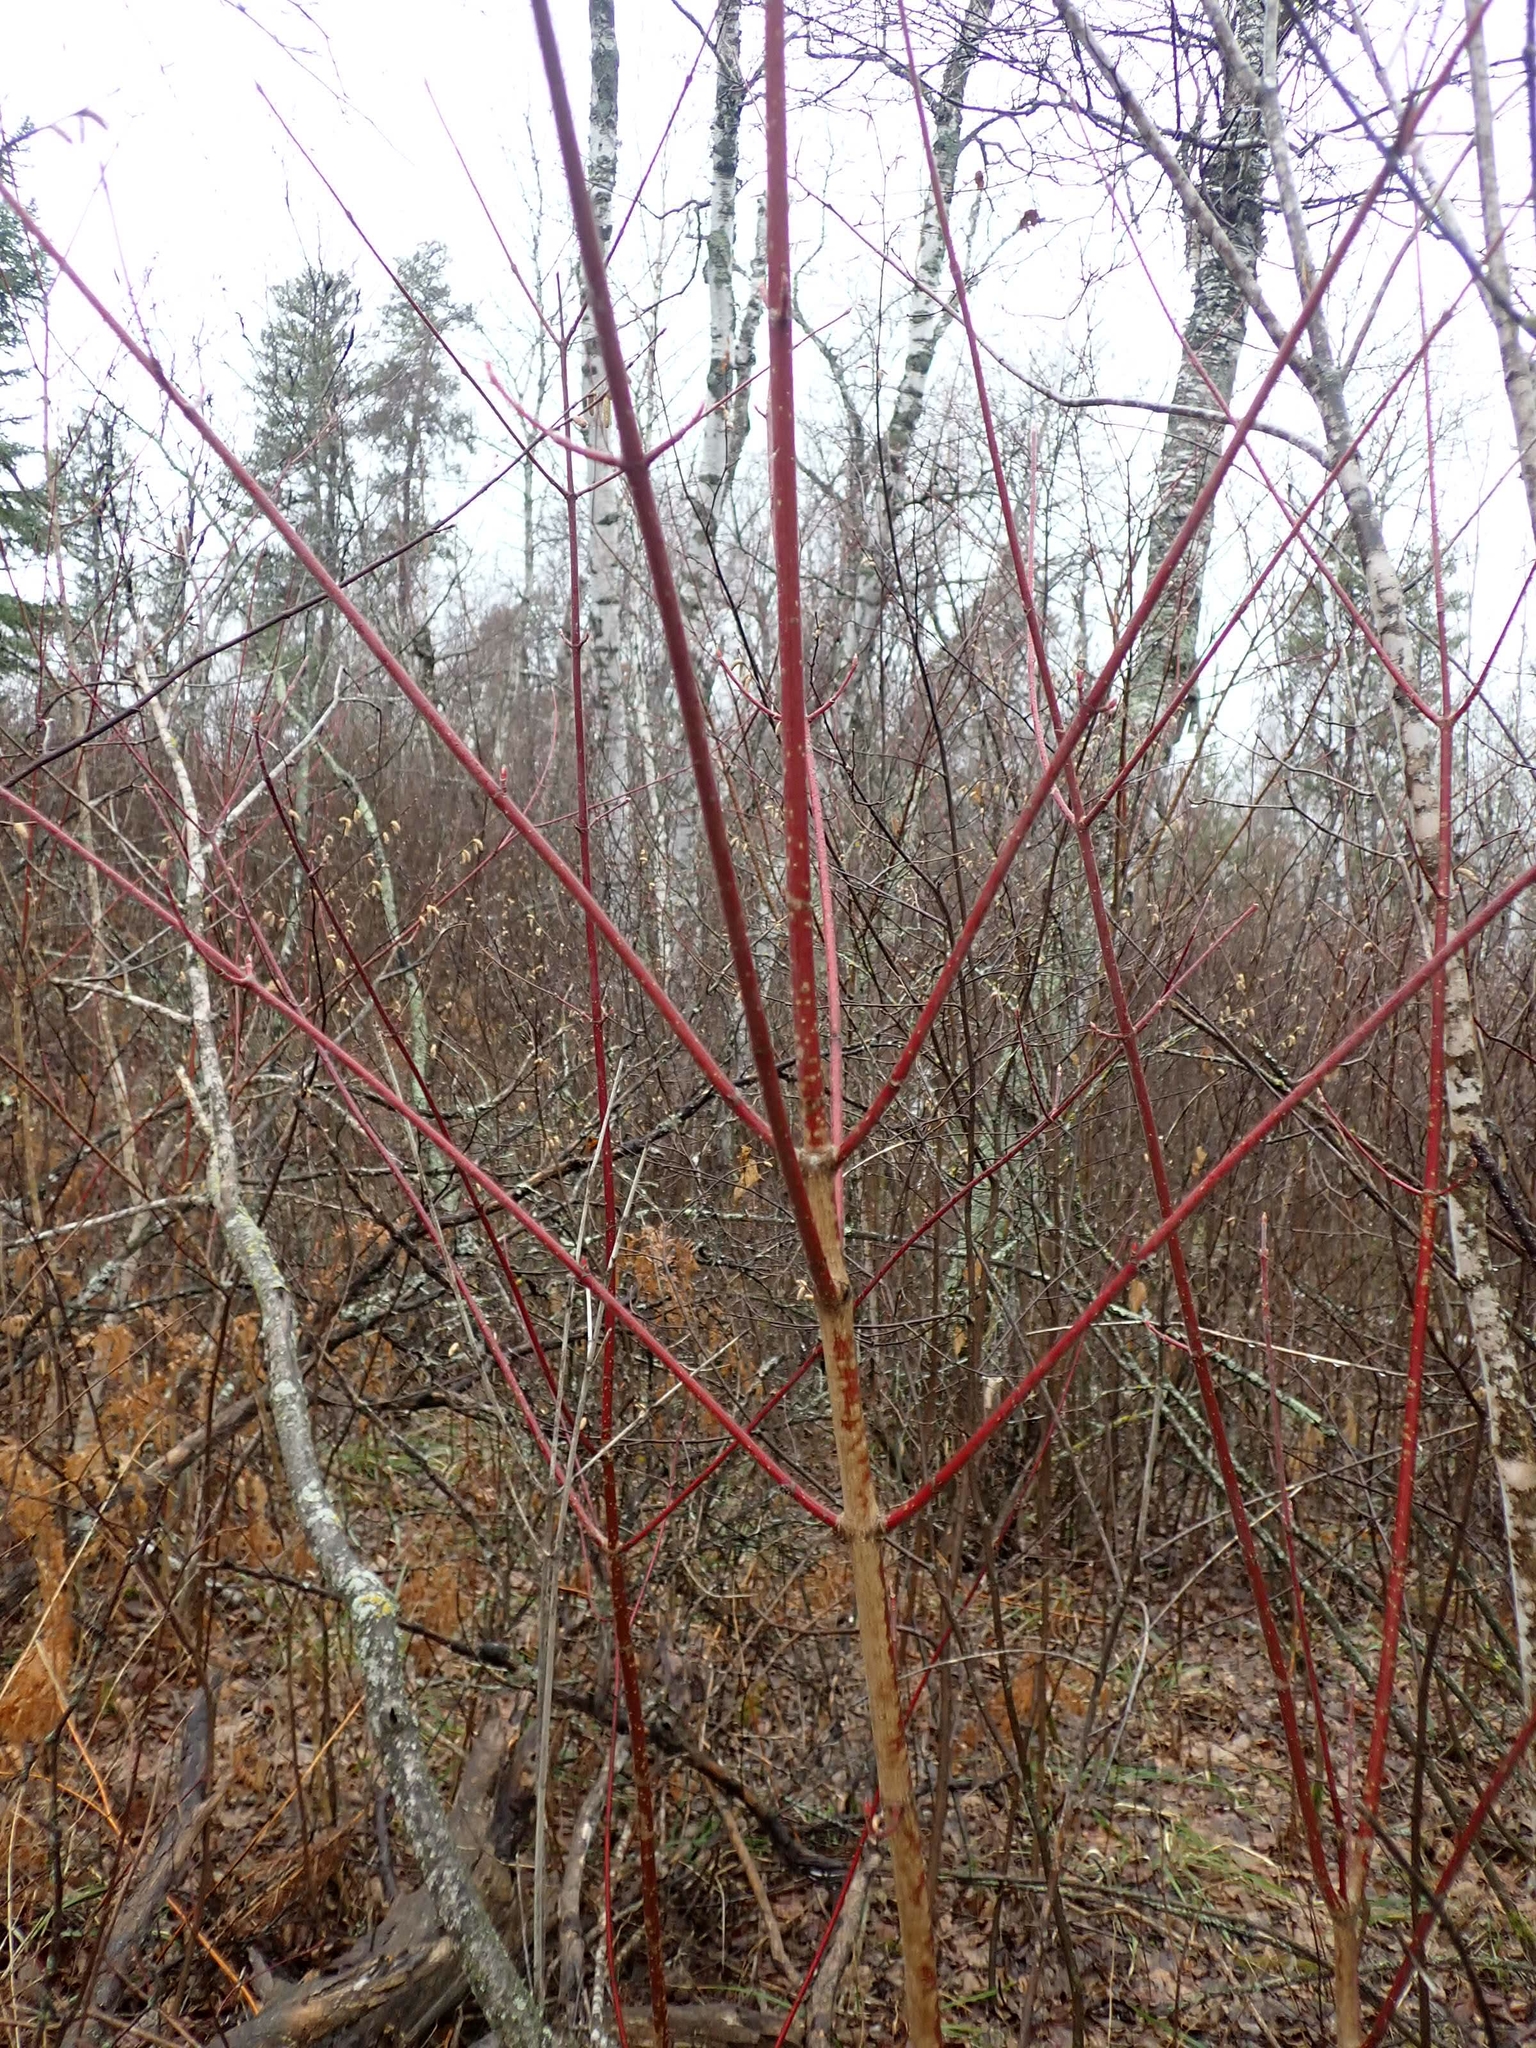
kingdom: Plantae
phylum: Tracheophyta
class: Magnoliopsida
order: Cornales
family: Cornaceae
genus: Cornus
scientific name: Cornus sericea
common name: Red-osier dogwood
